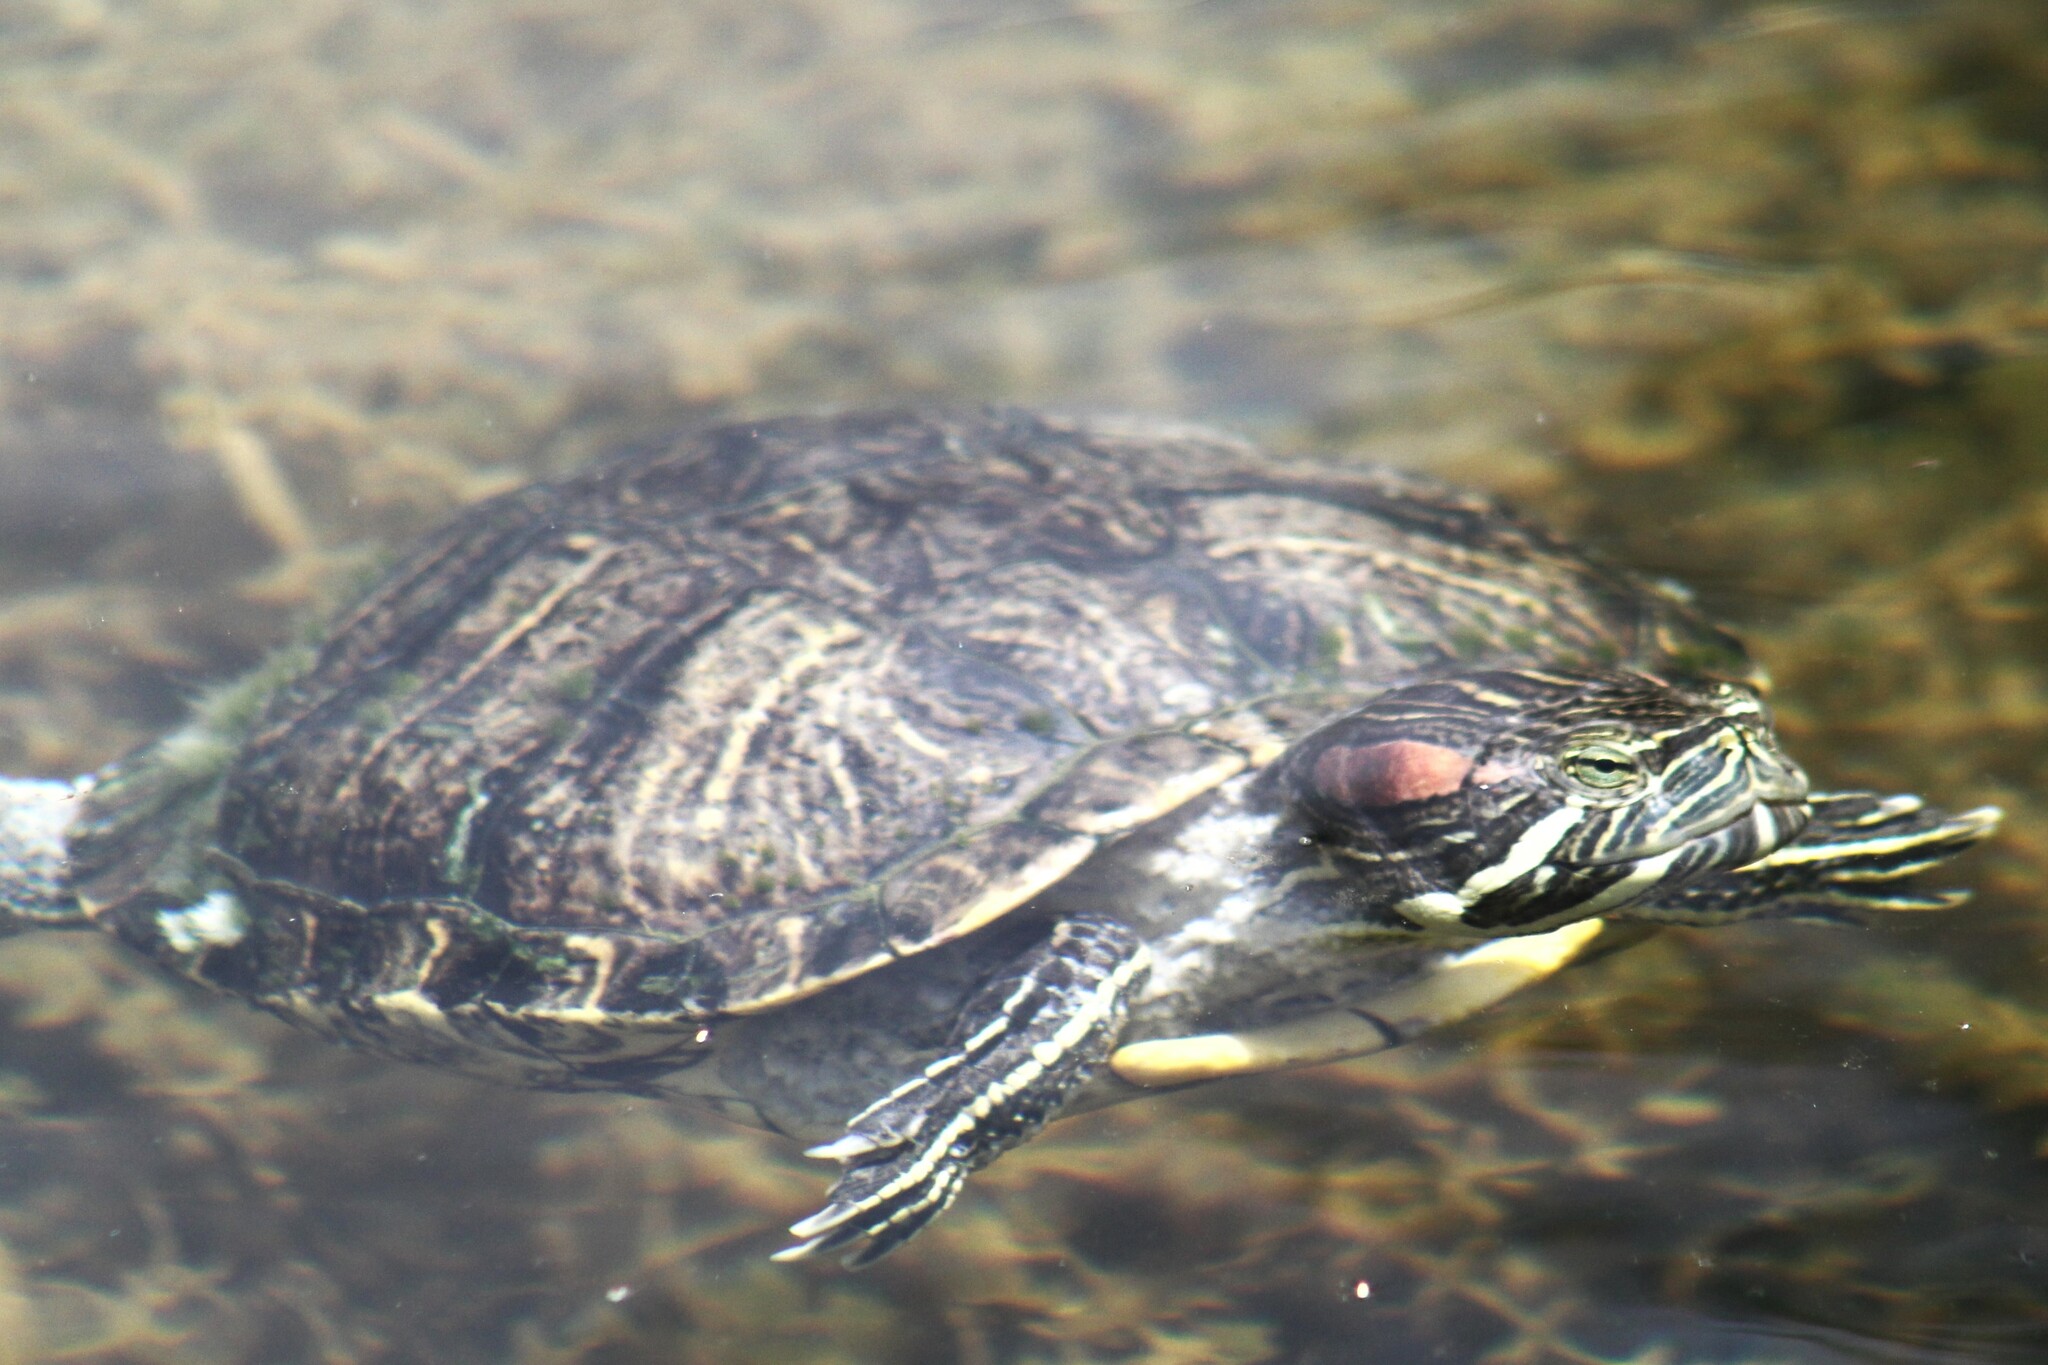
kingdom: Animalia
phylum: Chordata
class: Testudines
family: Emydidae
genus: Trachemys
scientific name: Trachemys scripta
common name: Slider
